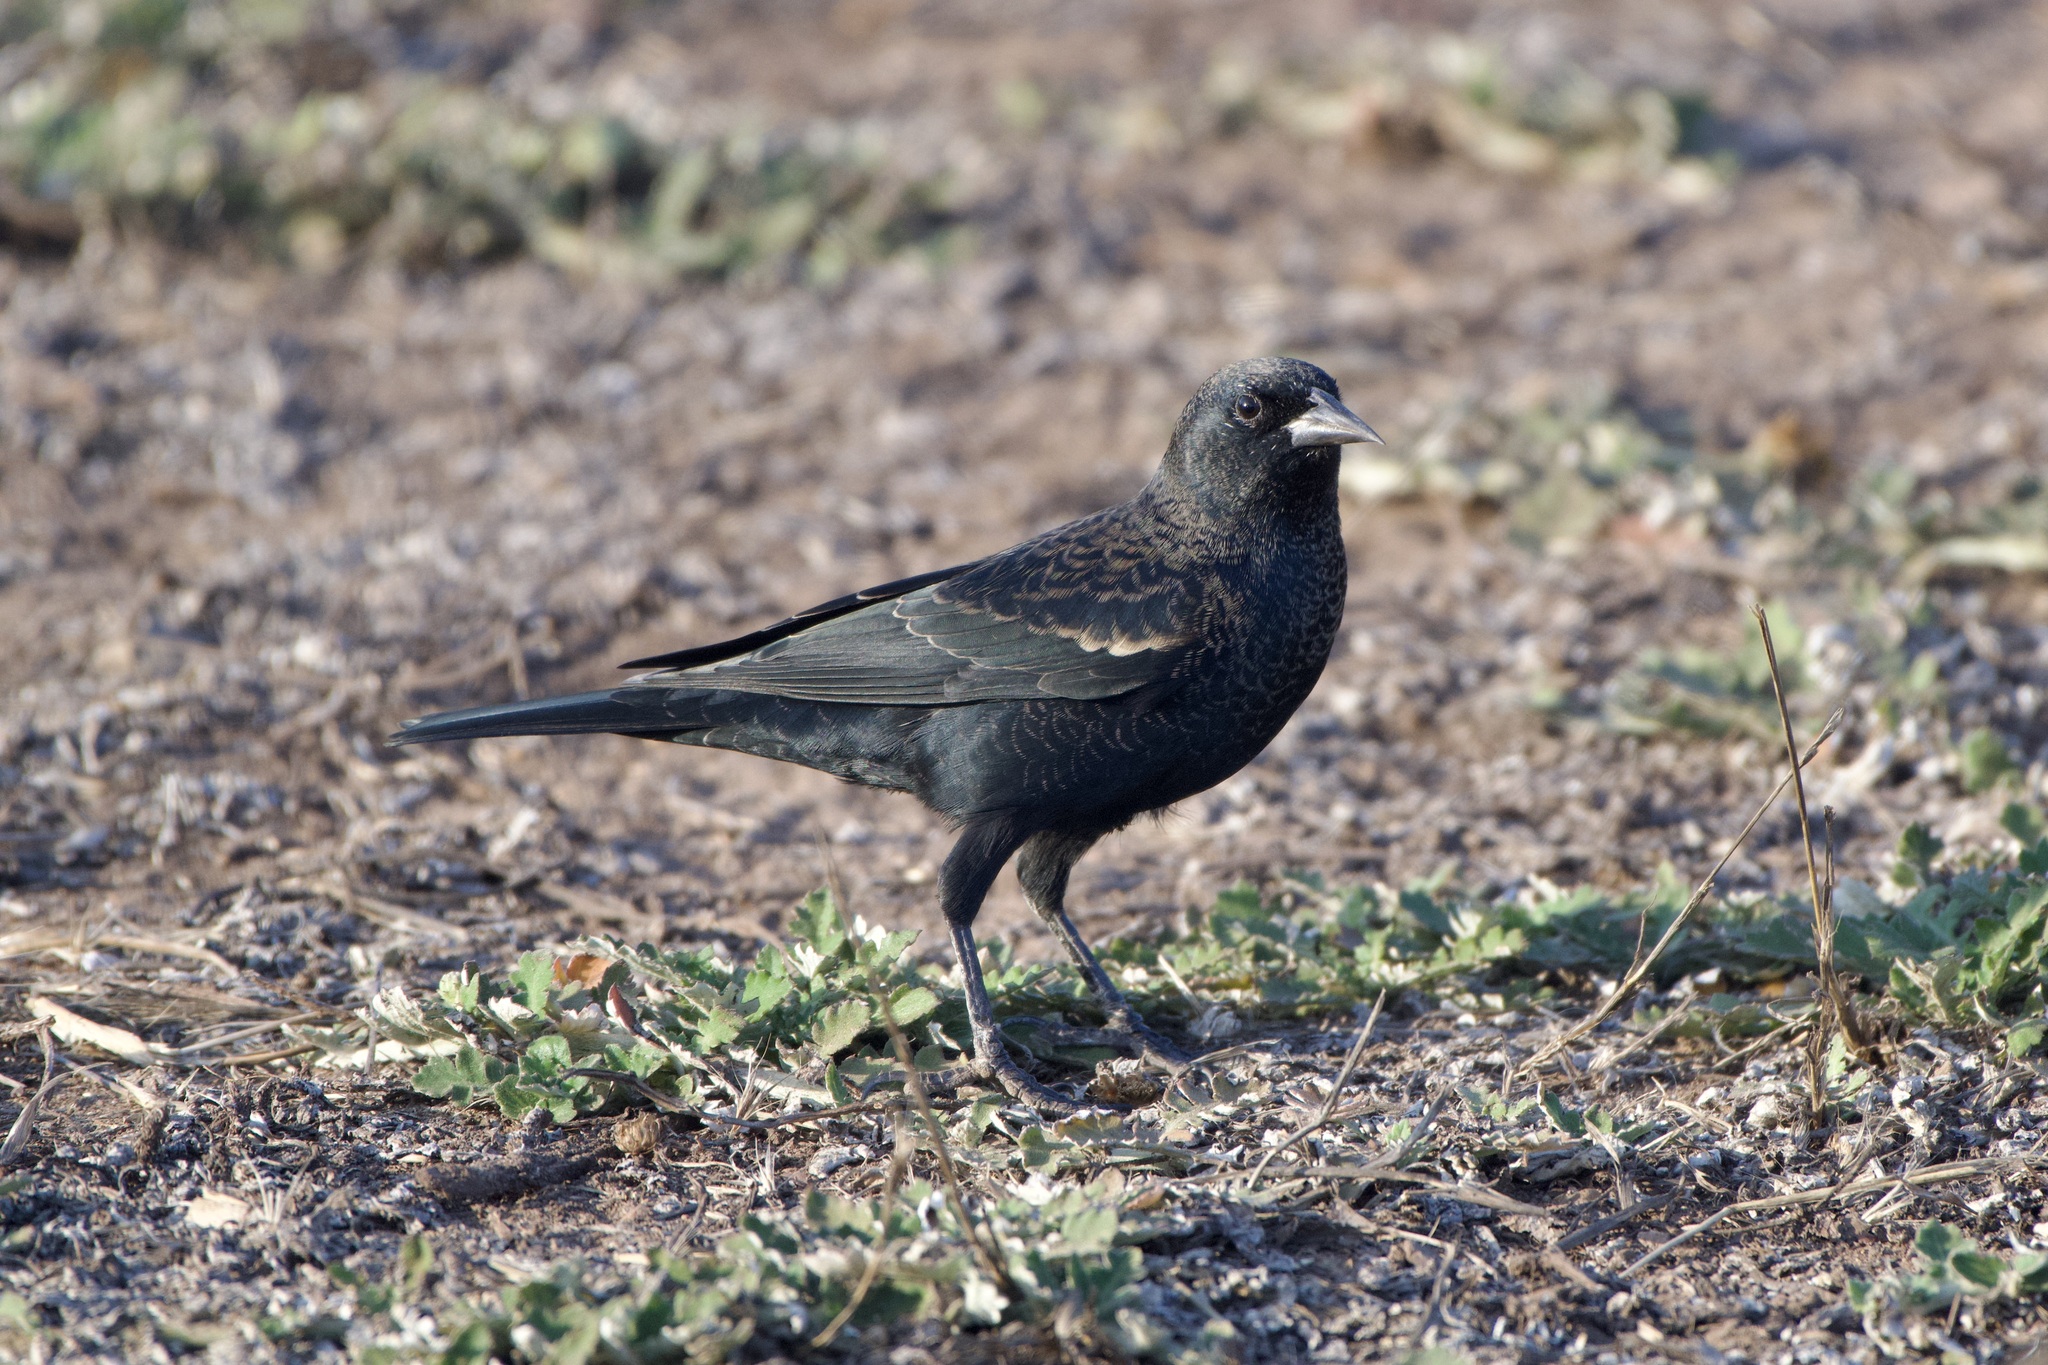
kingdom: Animalia
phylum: Chordata
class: Aves
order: Passeriformes
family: Icteridae
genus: Agelaius
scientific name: Agelaius phoeniceus
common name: Red-winged blackbird
